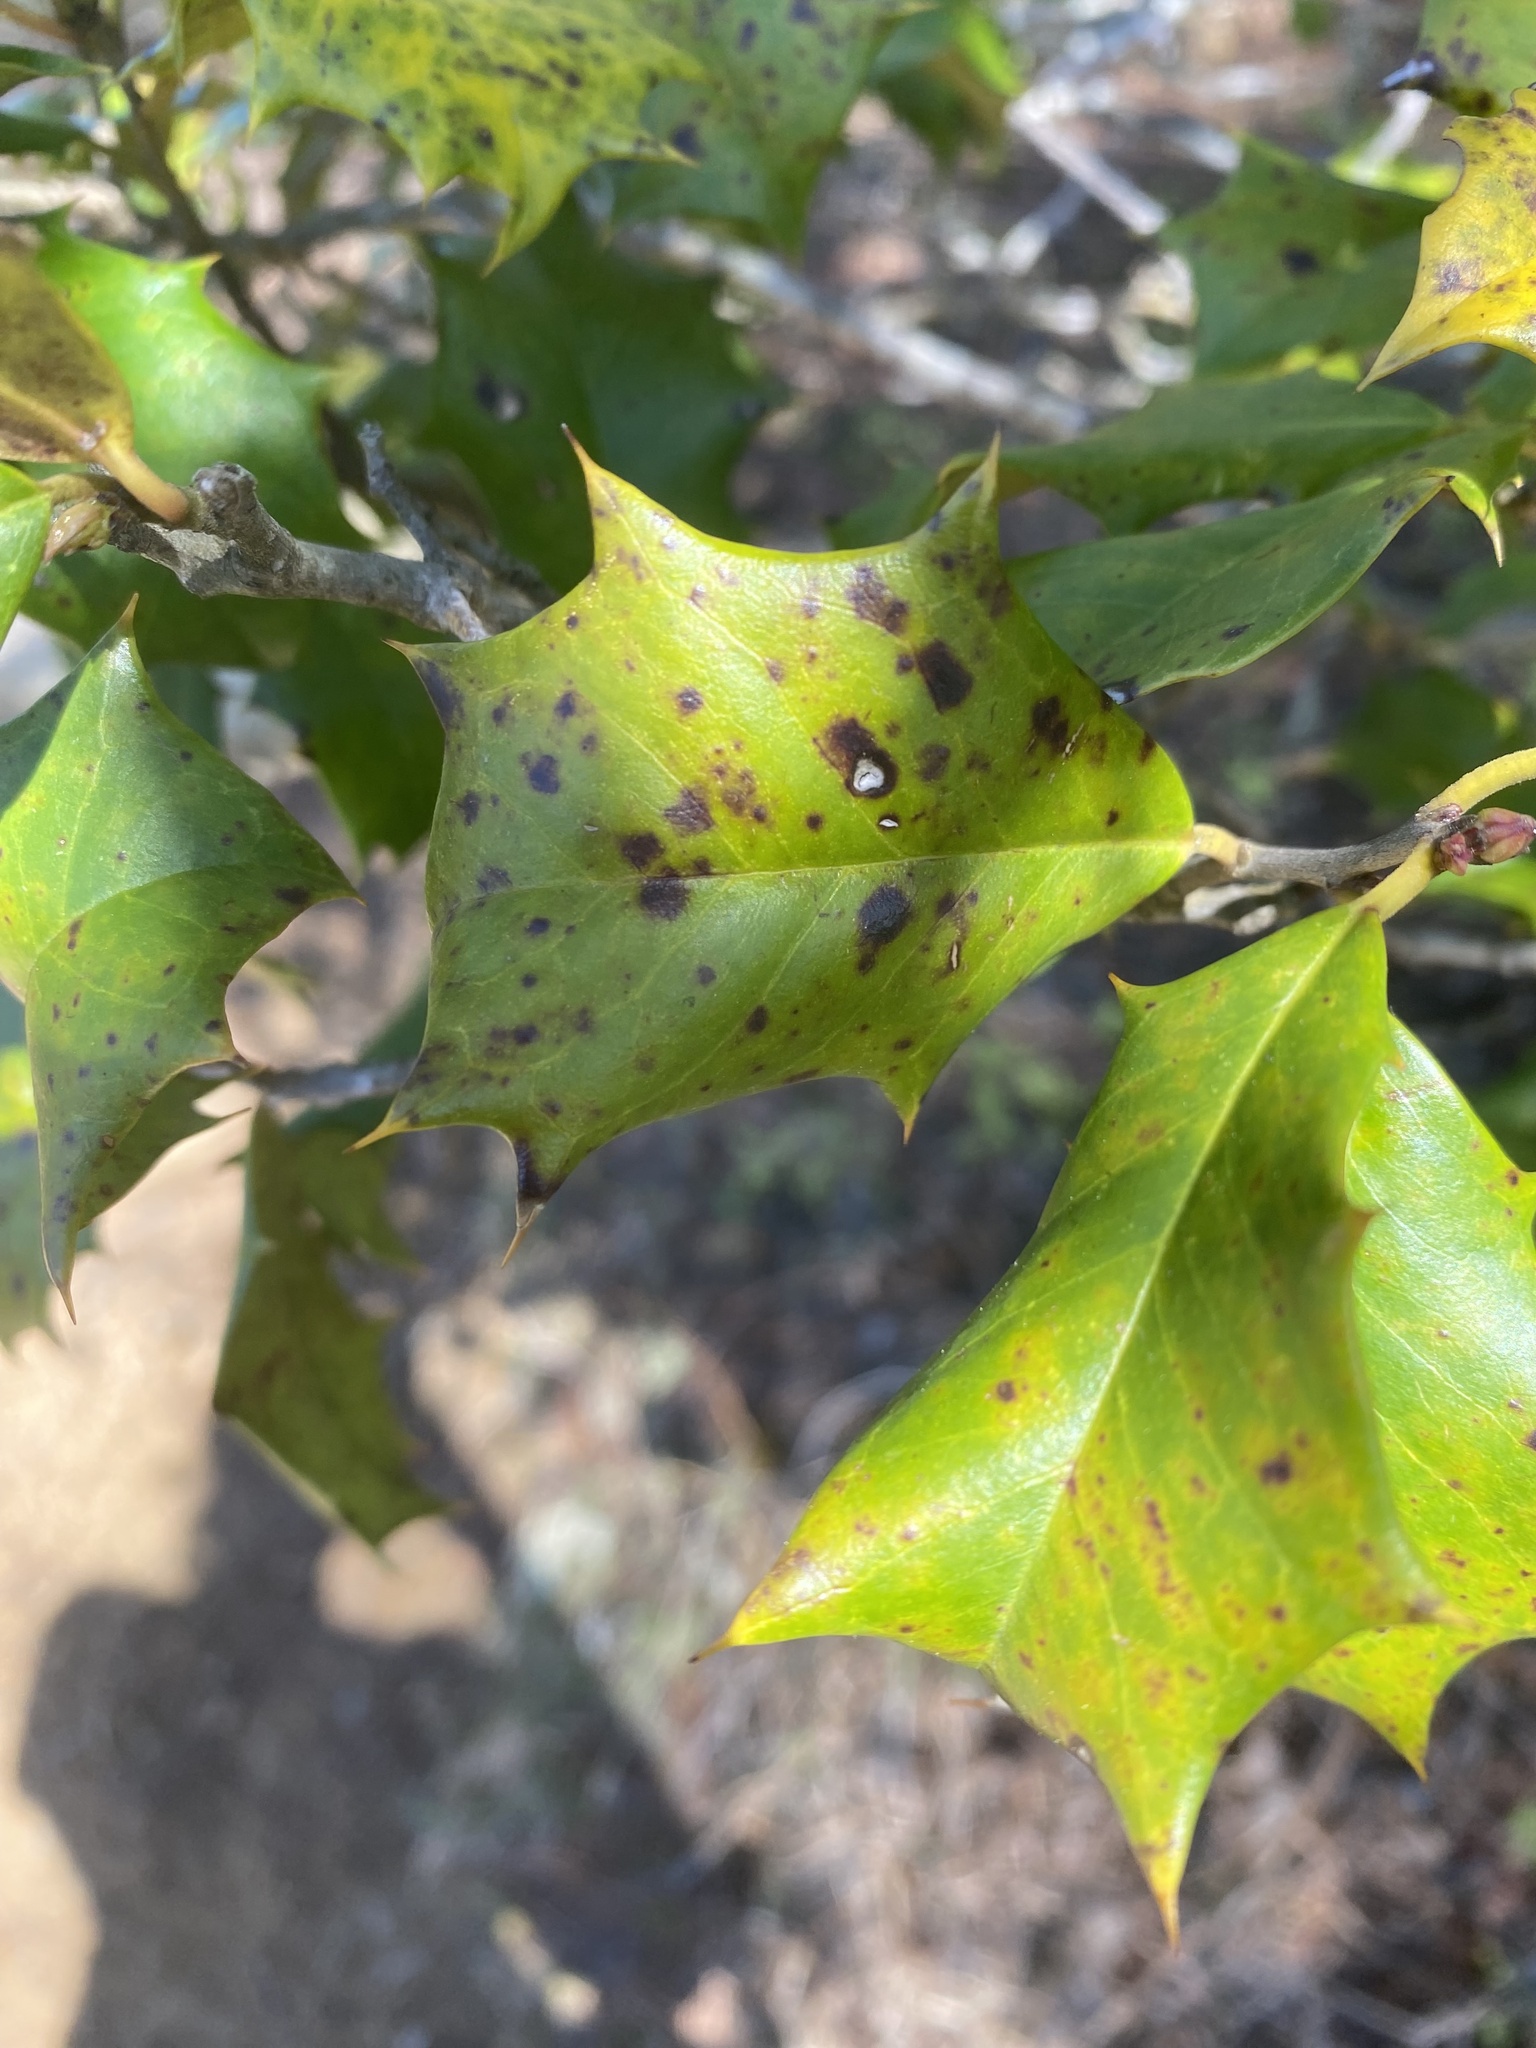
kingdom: Plantae
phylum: Tracheophyta
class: Magnoliopsida
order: Aquifoliales
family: Aquifoliaceae
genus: Ilex
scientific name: Ilex opaca
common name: American holly
